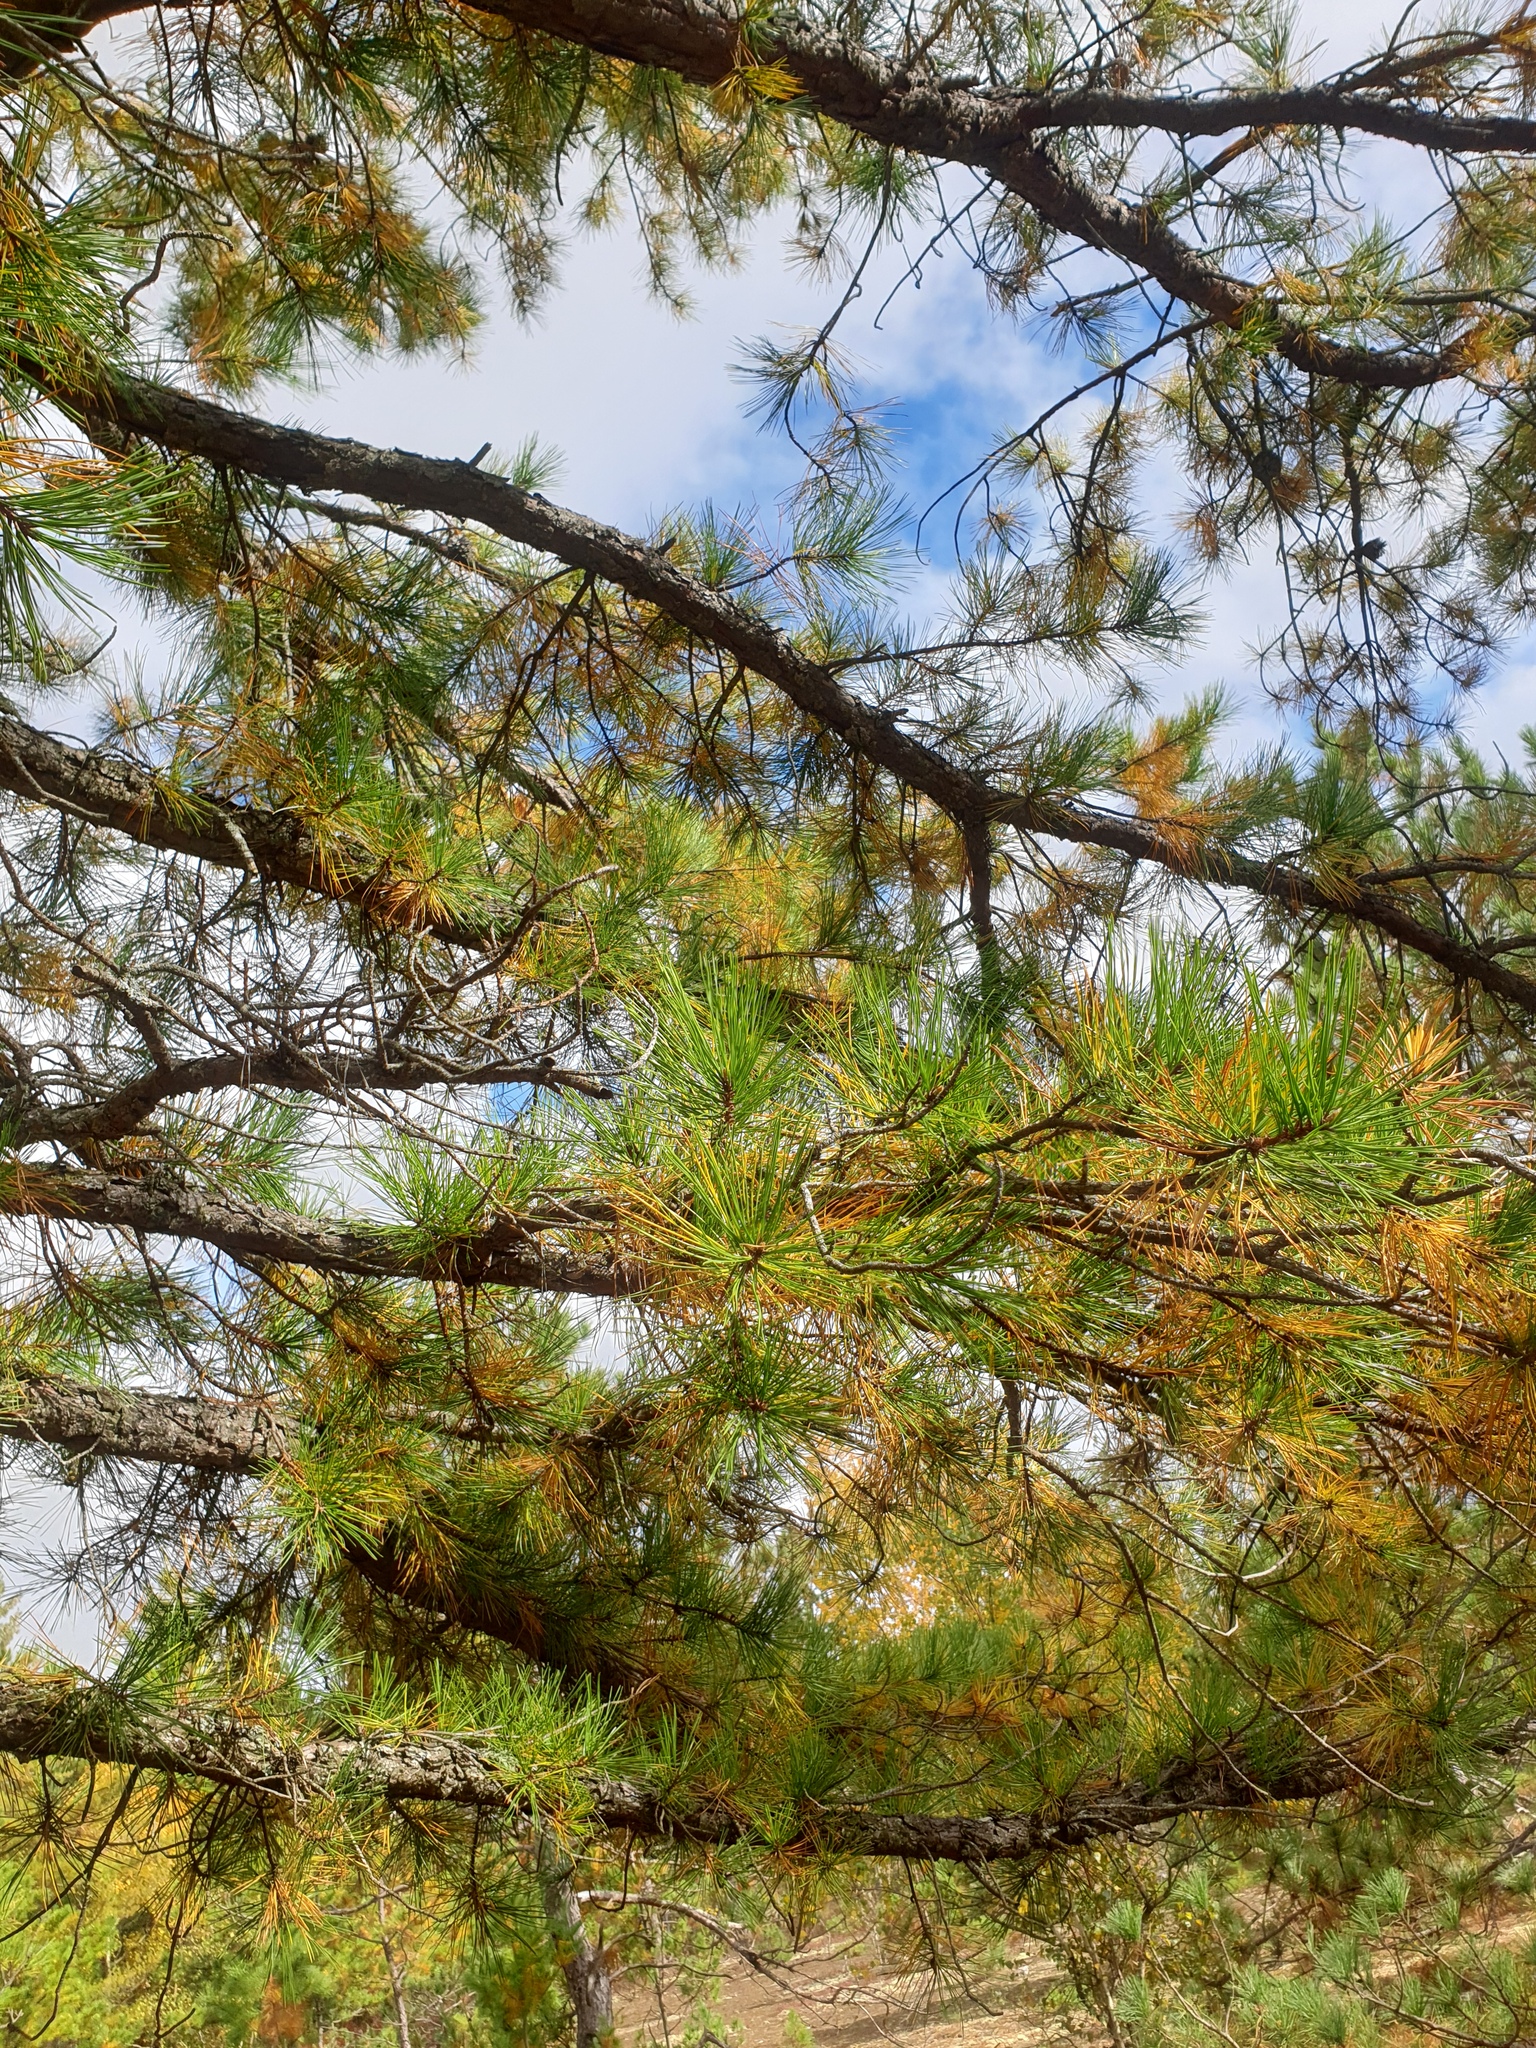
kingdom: Plantae
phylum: Tracheophyta
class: Pinopsida
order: Pinales
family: Pinaceae
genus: Pinus
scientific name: Pinus rigida
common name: Pitch pine
